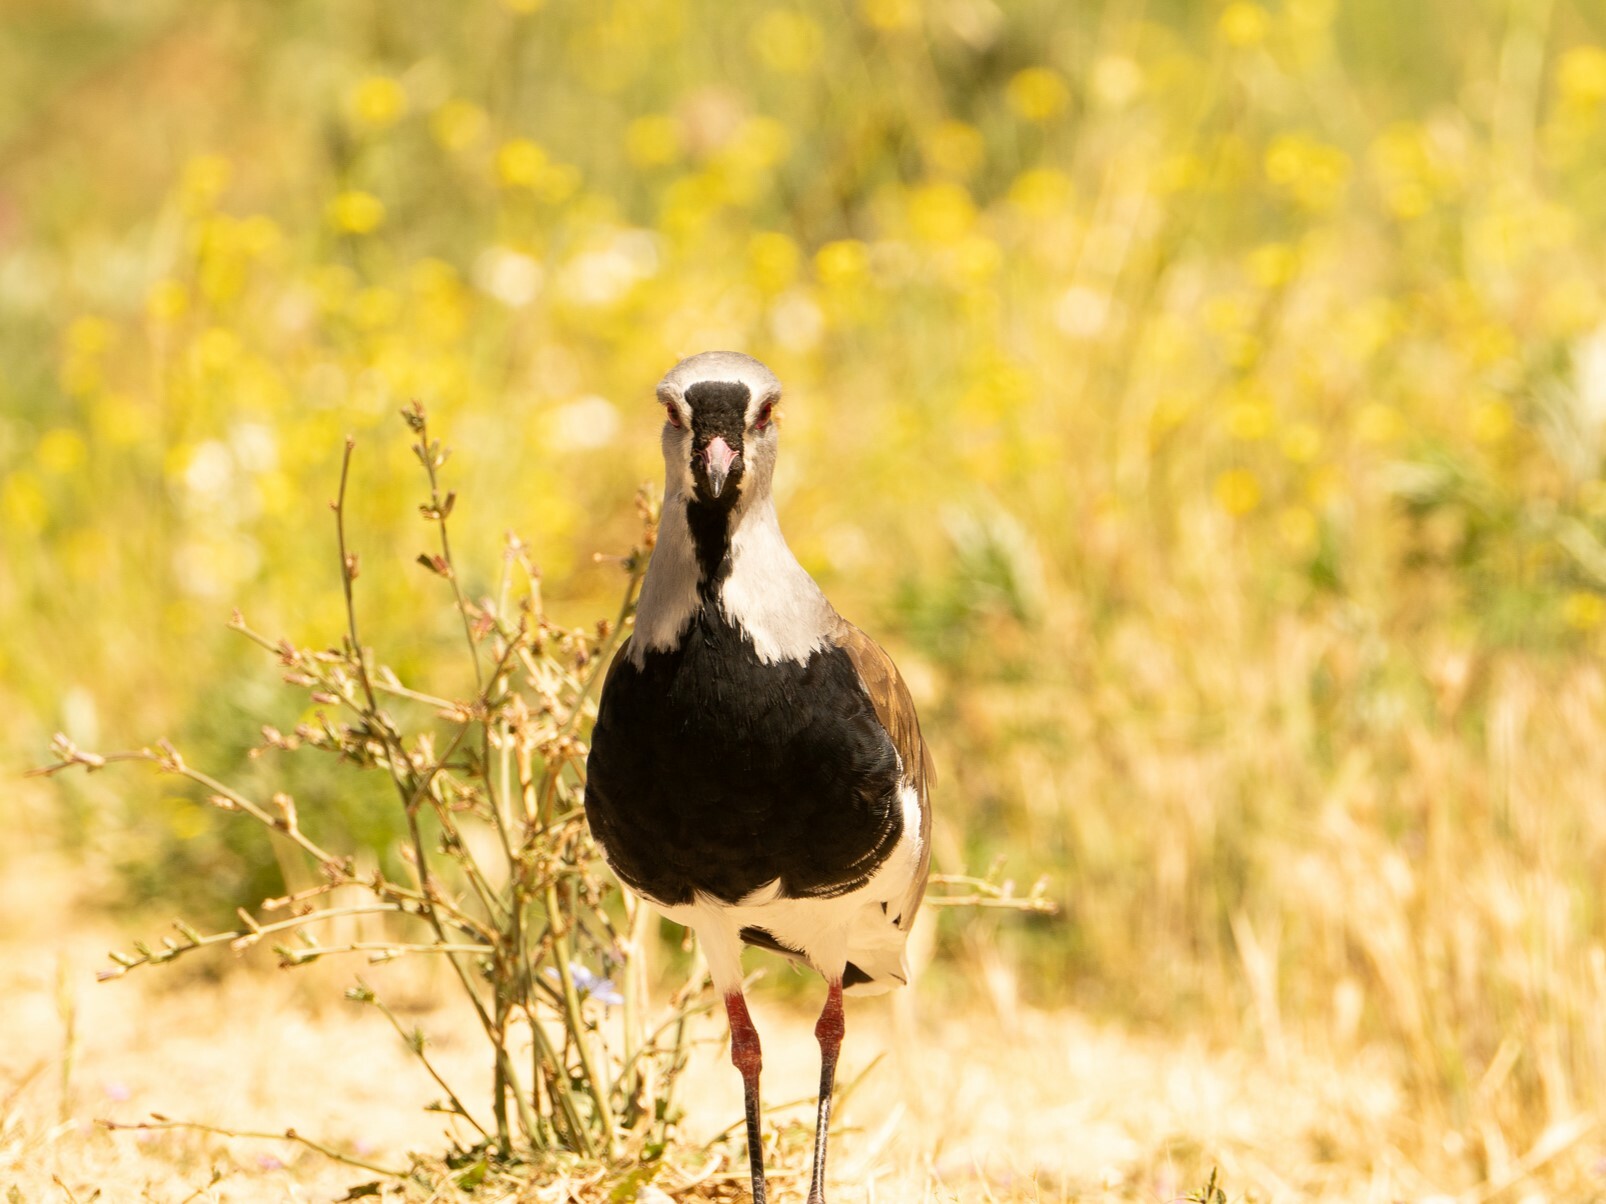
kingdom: Animalia
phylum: Chordata
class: Aves
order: Charadriiformes
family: Charadriidae
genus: Vanellus
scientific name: Vanellus chilensis
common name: Southern lapwing
